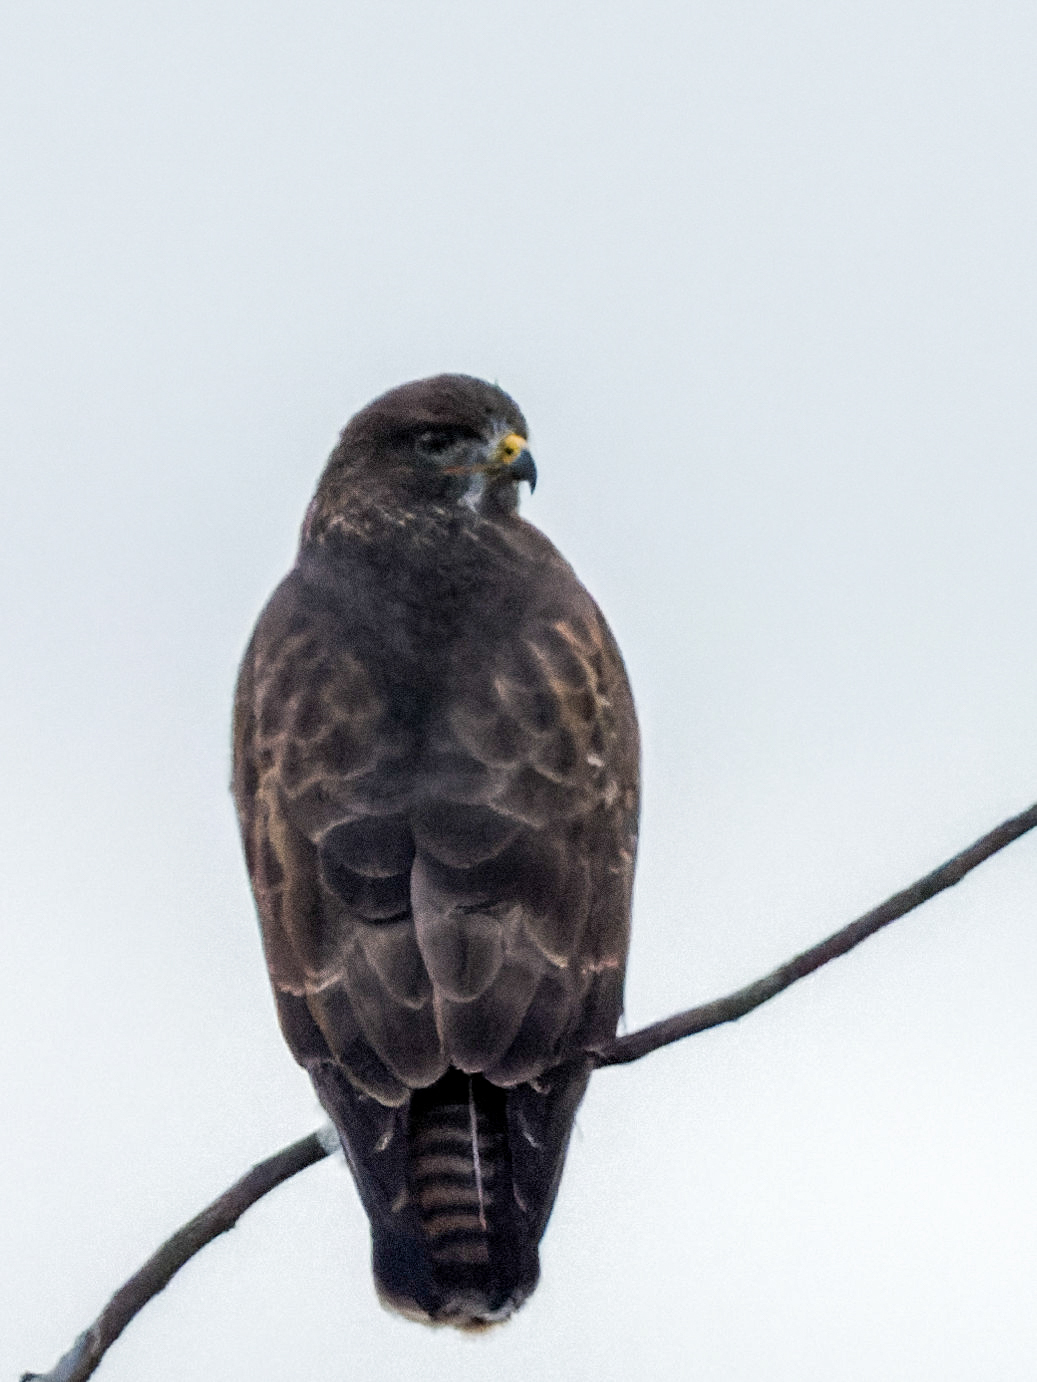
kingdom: Animalia
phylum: Chordata
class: Aves
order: Accipitriformes
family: Accipitridae
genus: Buteo
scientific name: Buteo buteo
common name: Common buzzard
